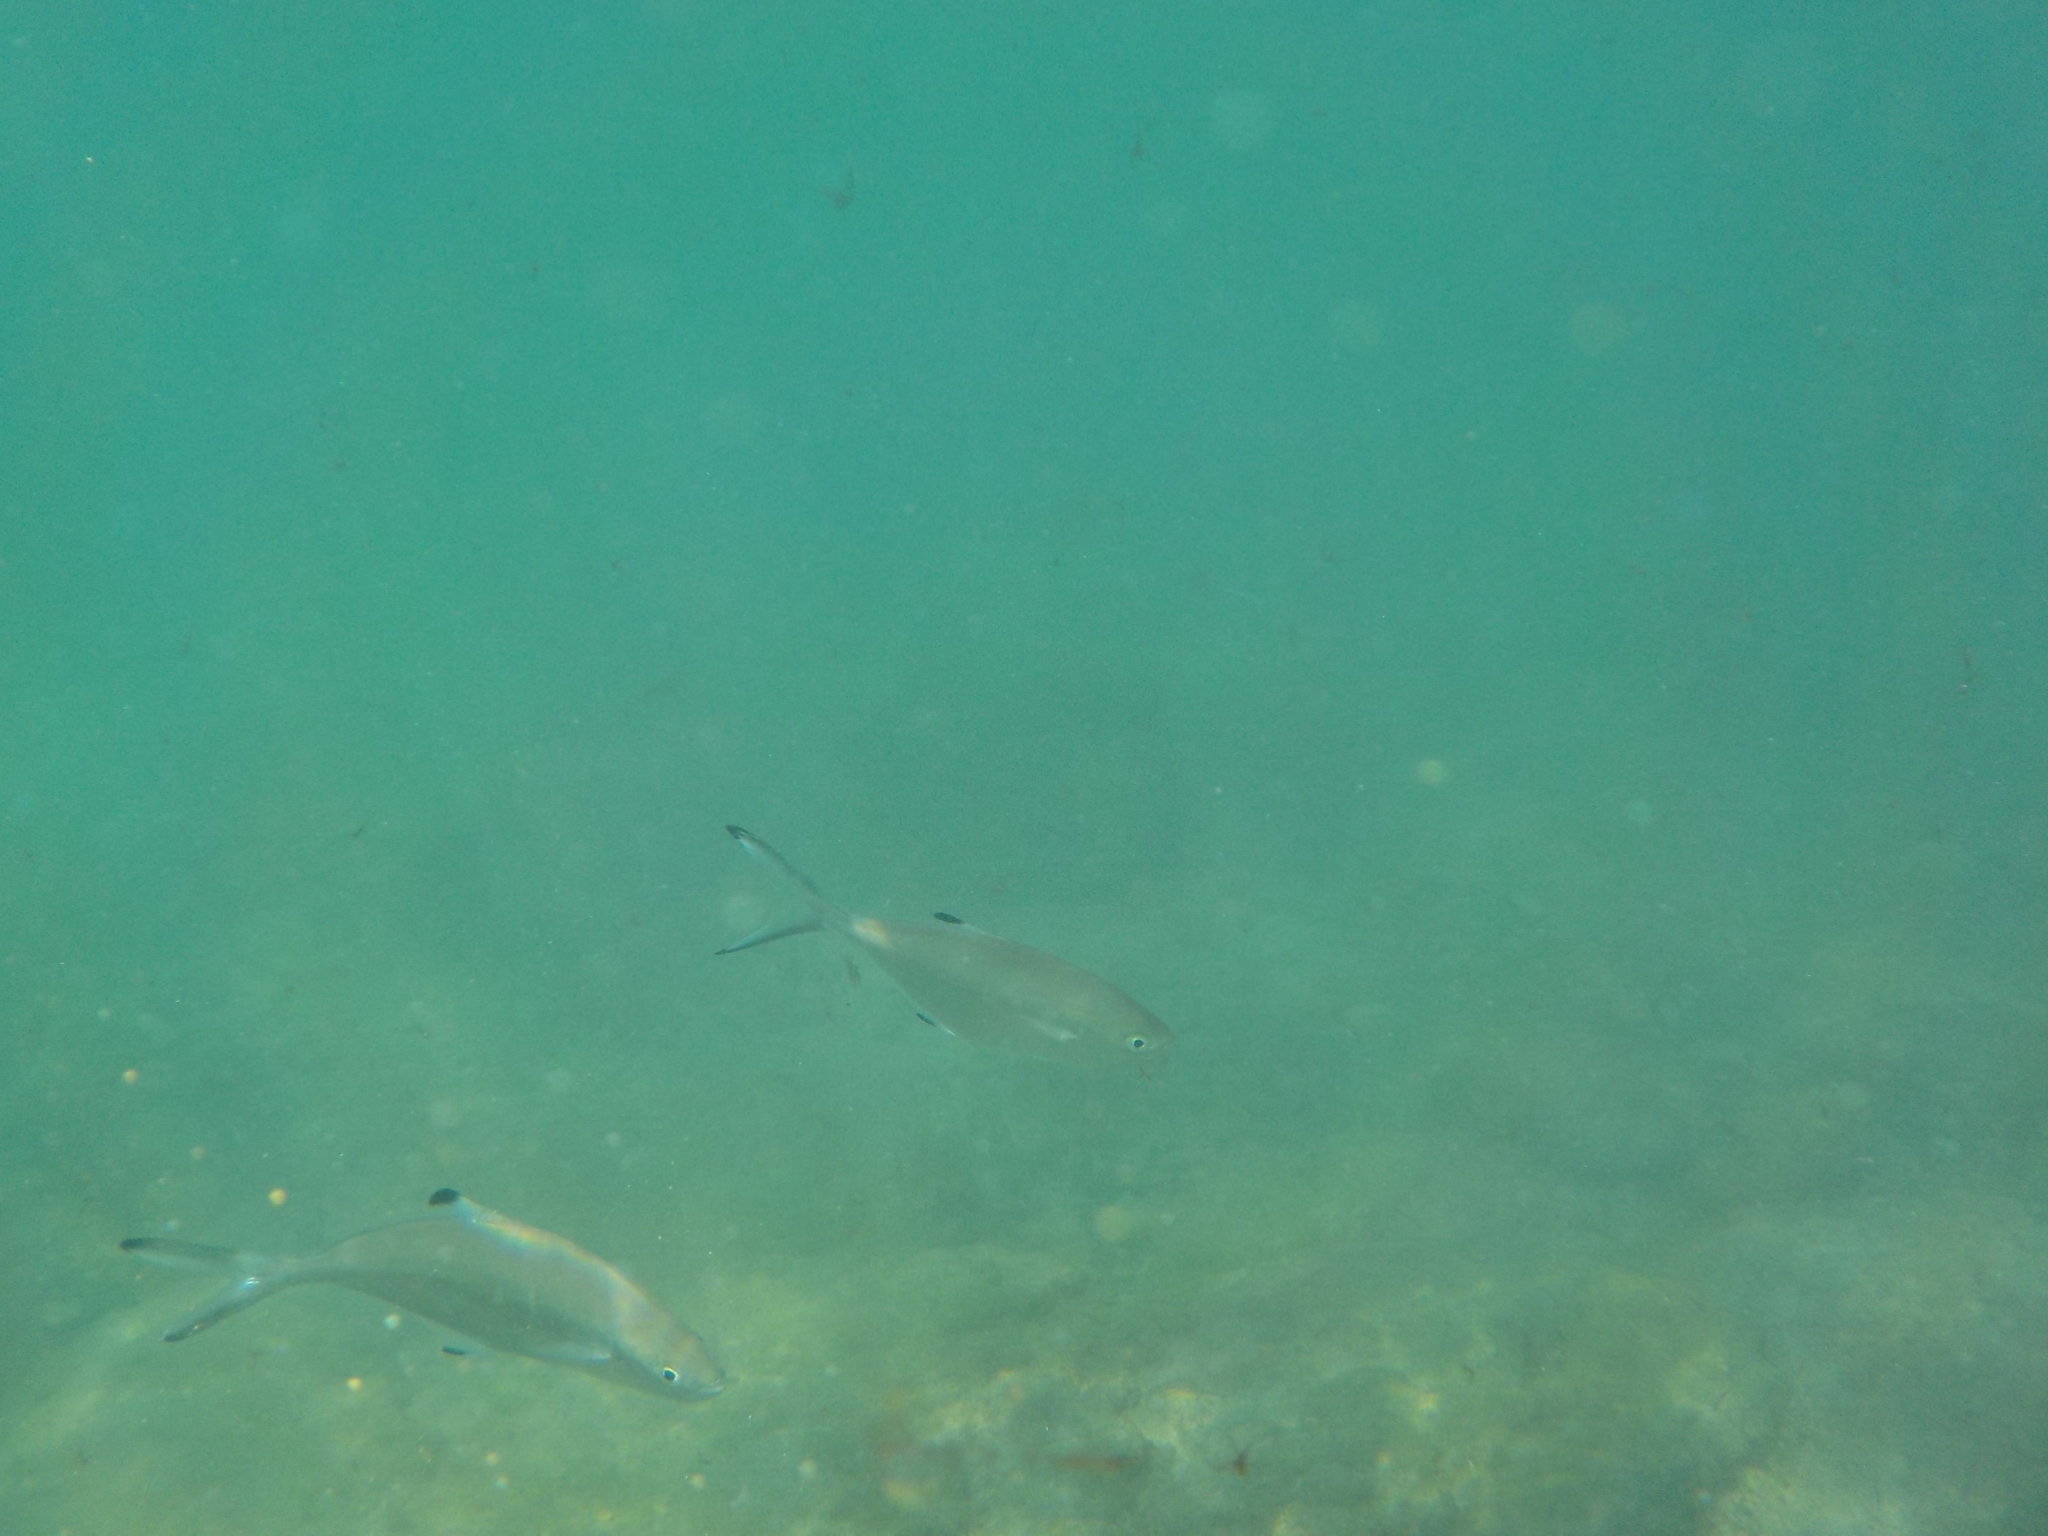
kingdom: Animalia
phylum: Chordata
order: Perciformes
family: Carangidae
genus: Trachinotus
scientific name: Trachinotus ovatus
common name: Pompano
